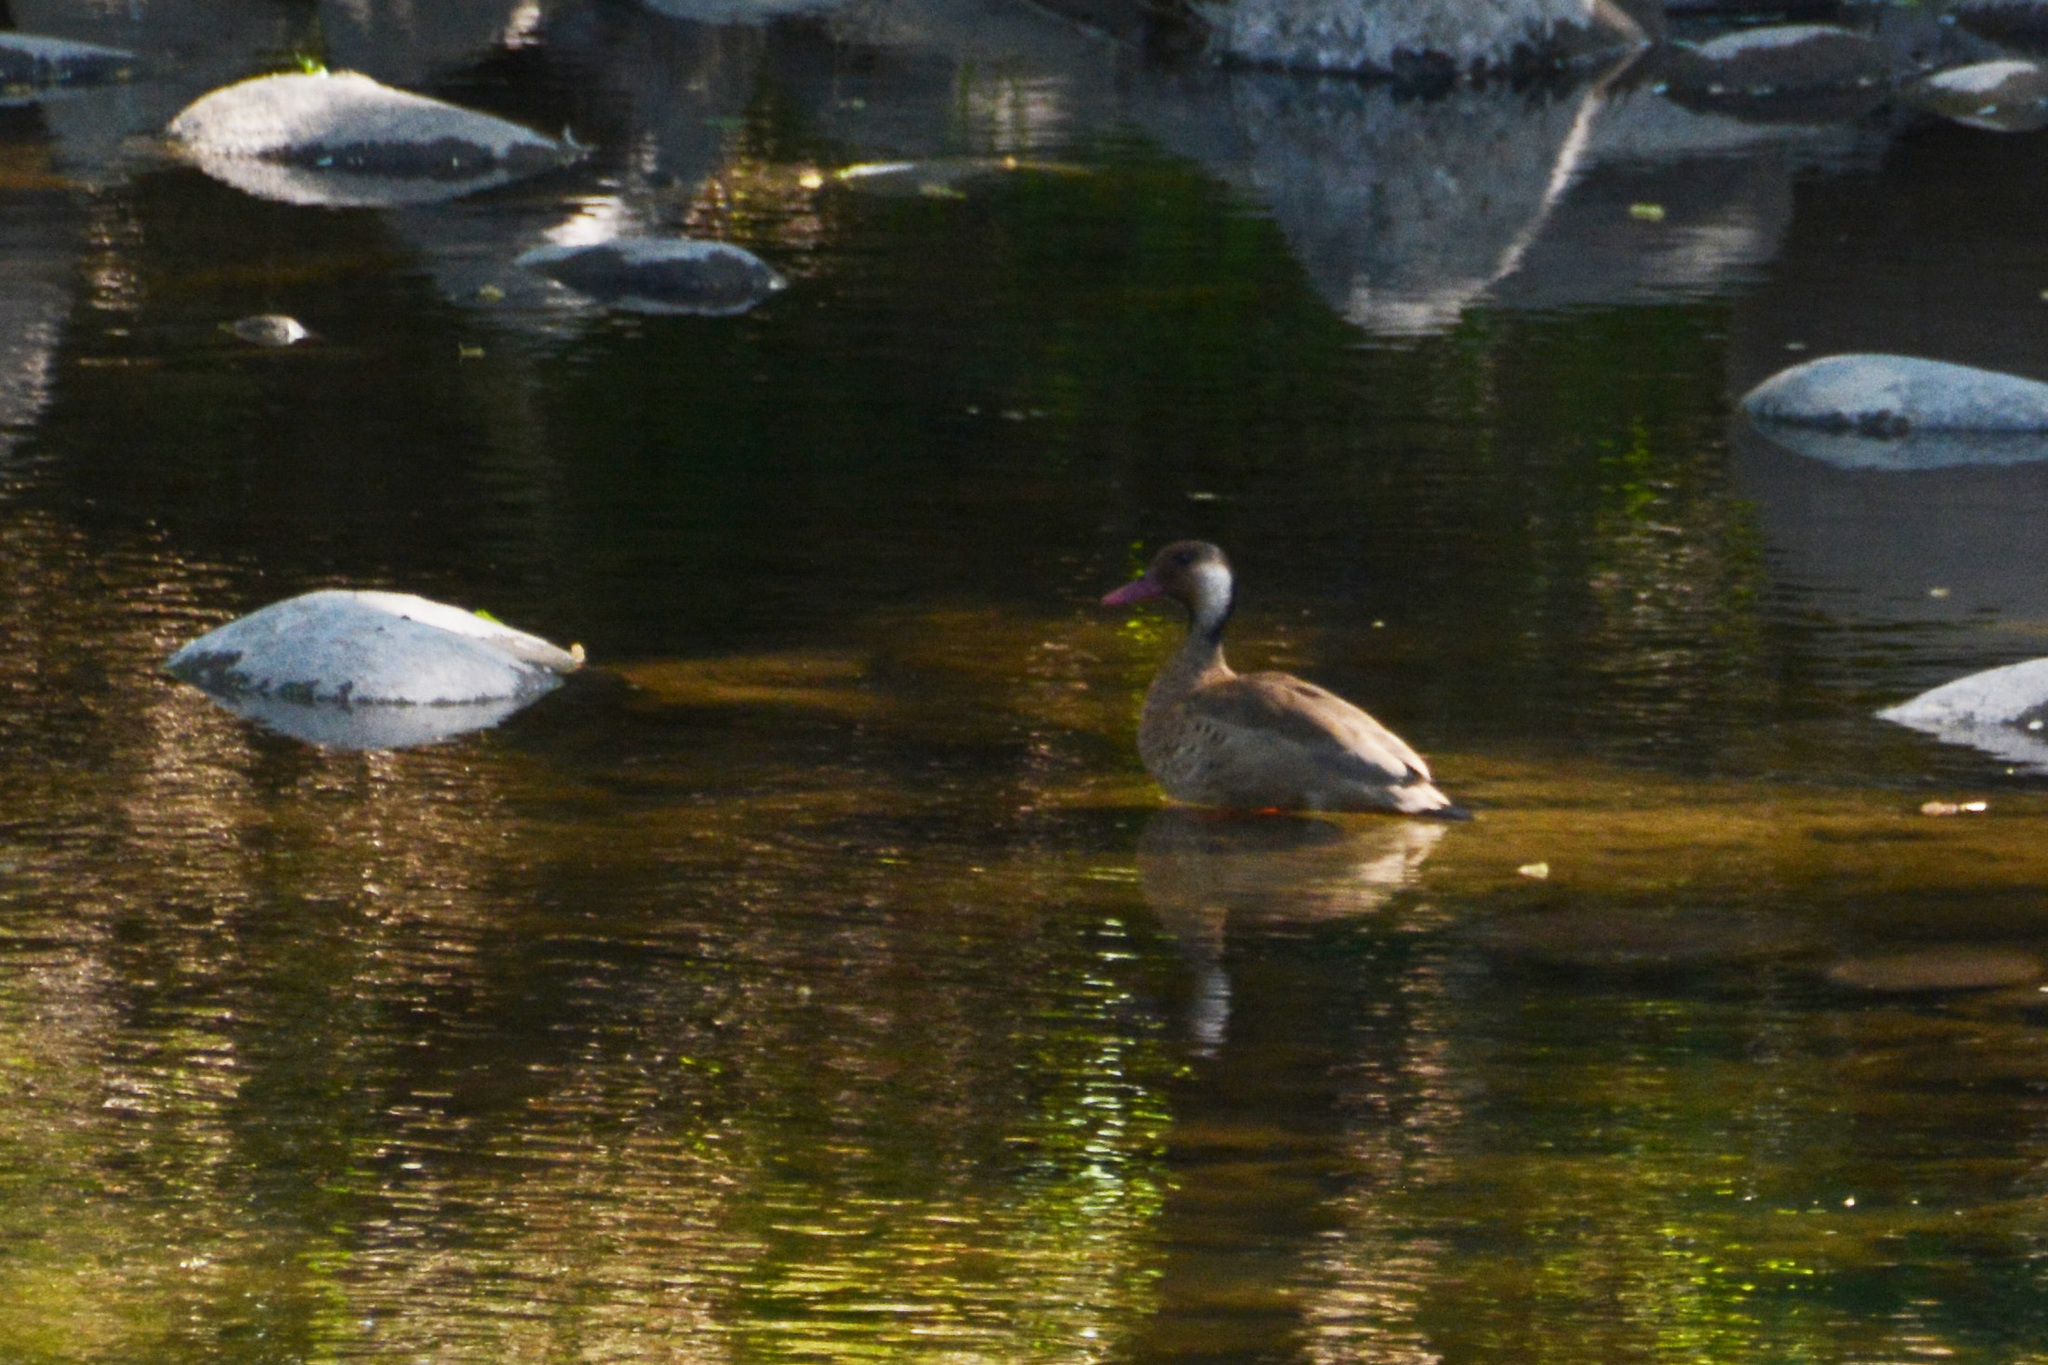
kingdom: Animalia
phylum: Chordata
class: Aves
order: Anseriformes
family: Anatidae
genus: Amazonetta
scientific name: Amazonetta brasiliensis
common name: Brazilian teal
